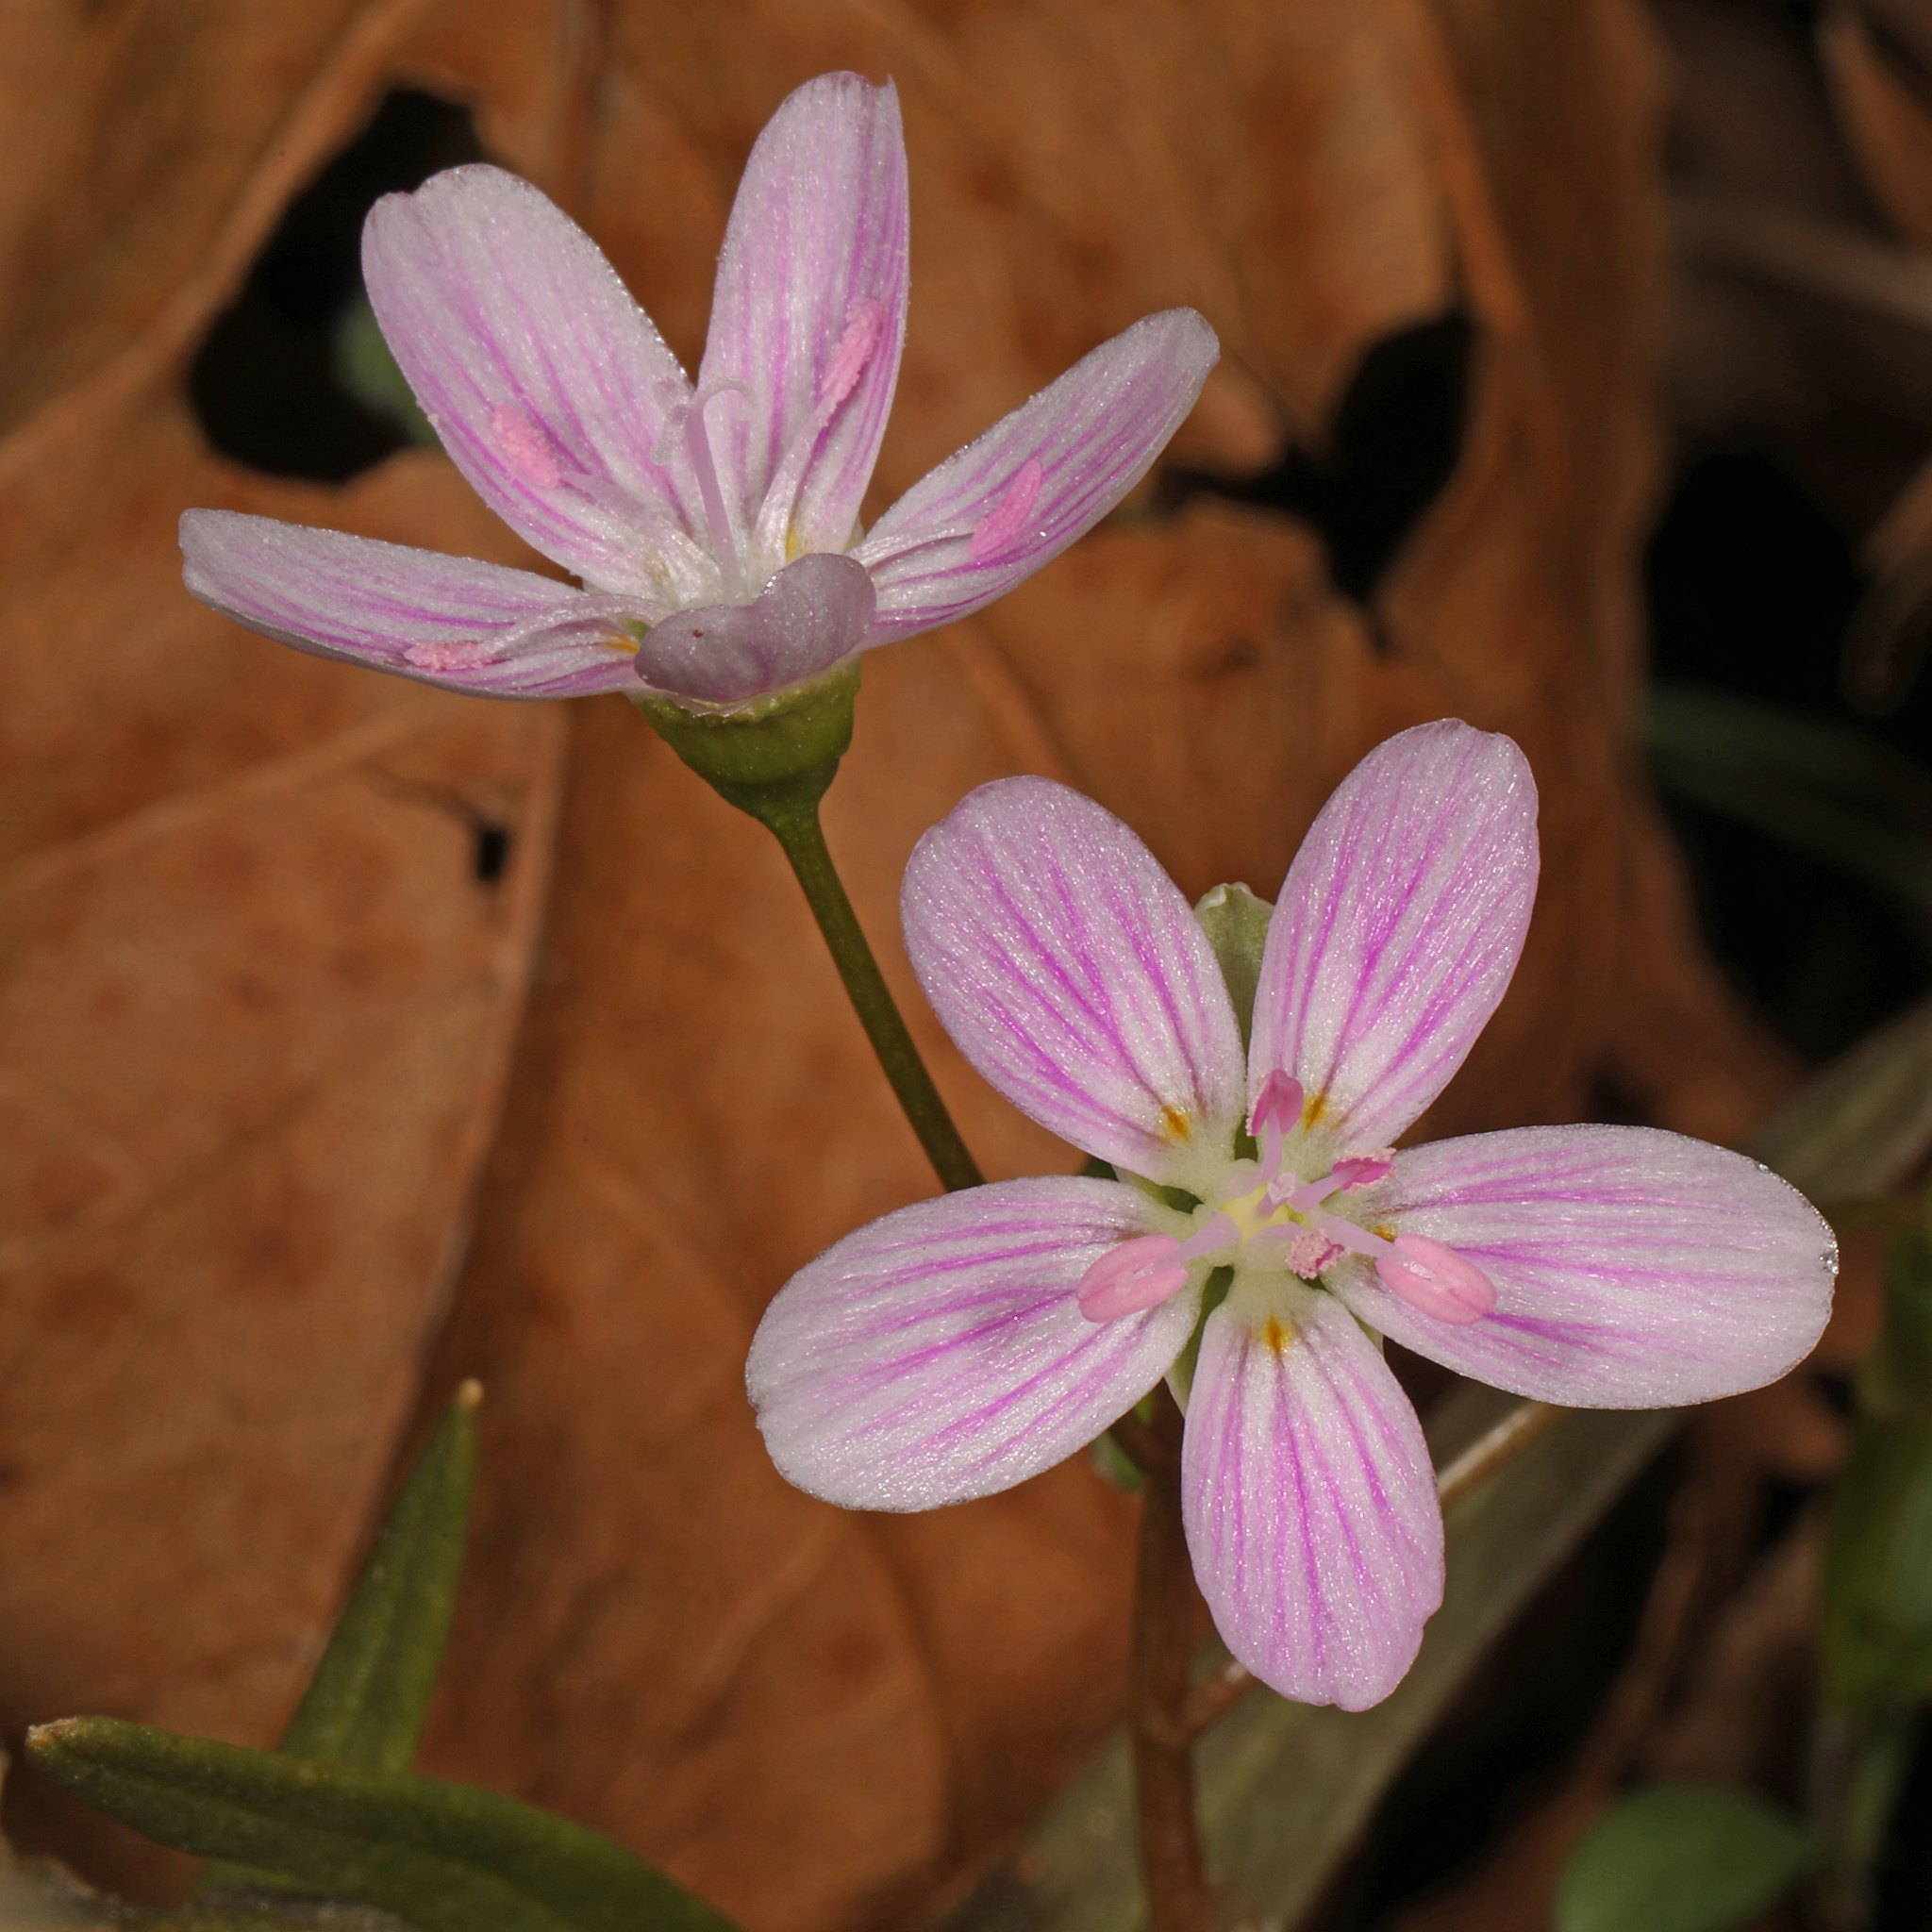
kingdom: Plantae
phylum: Tracheophyta
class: Magnoliopsida
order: Caryophyllales
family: Montiaceae
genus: Claytonia
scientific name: Claytonia virginica
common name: Virginia springbeauty
